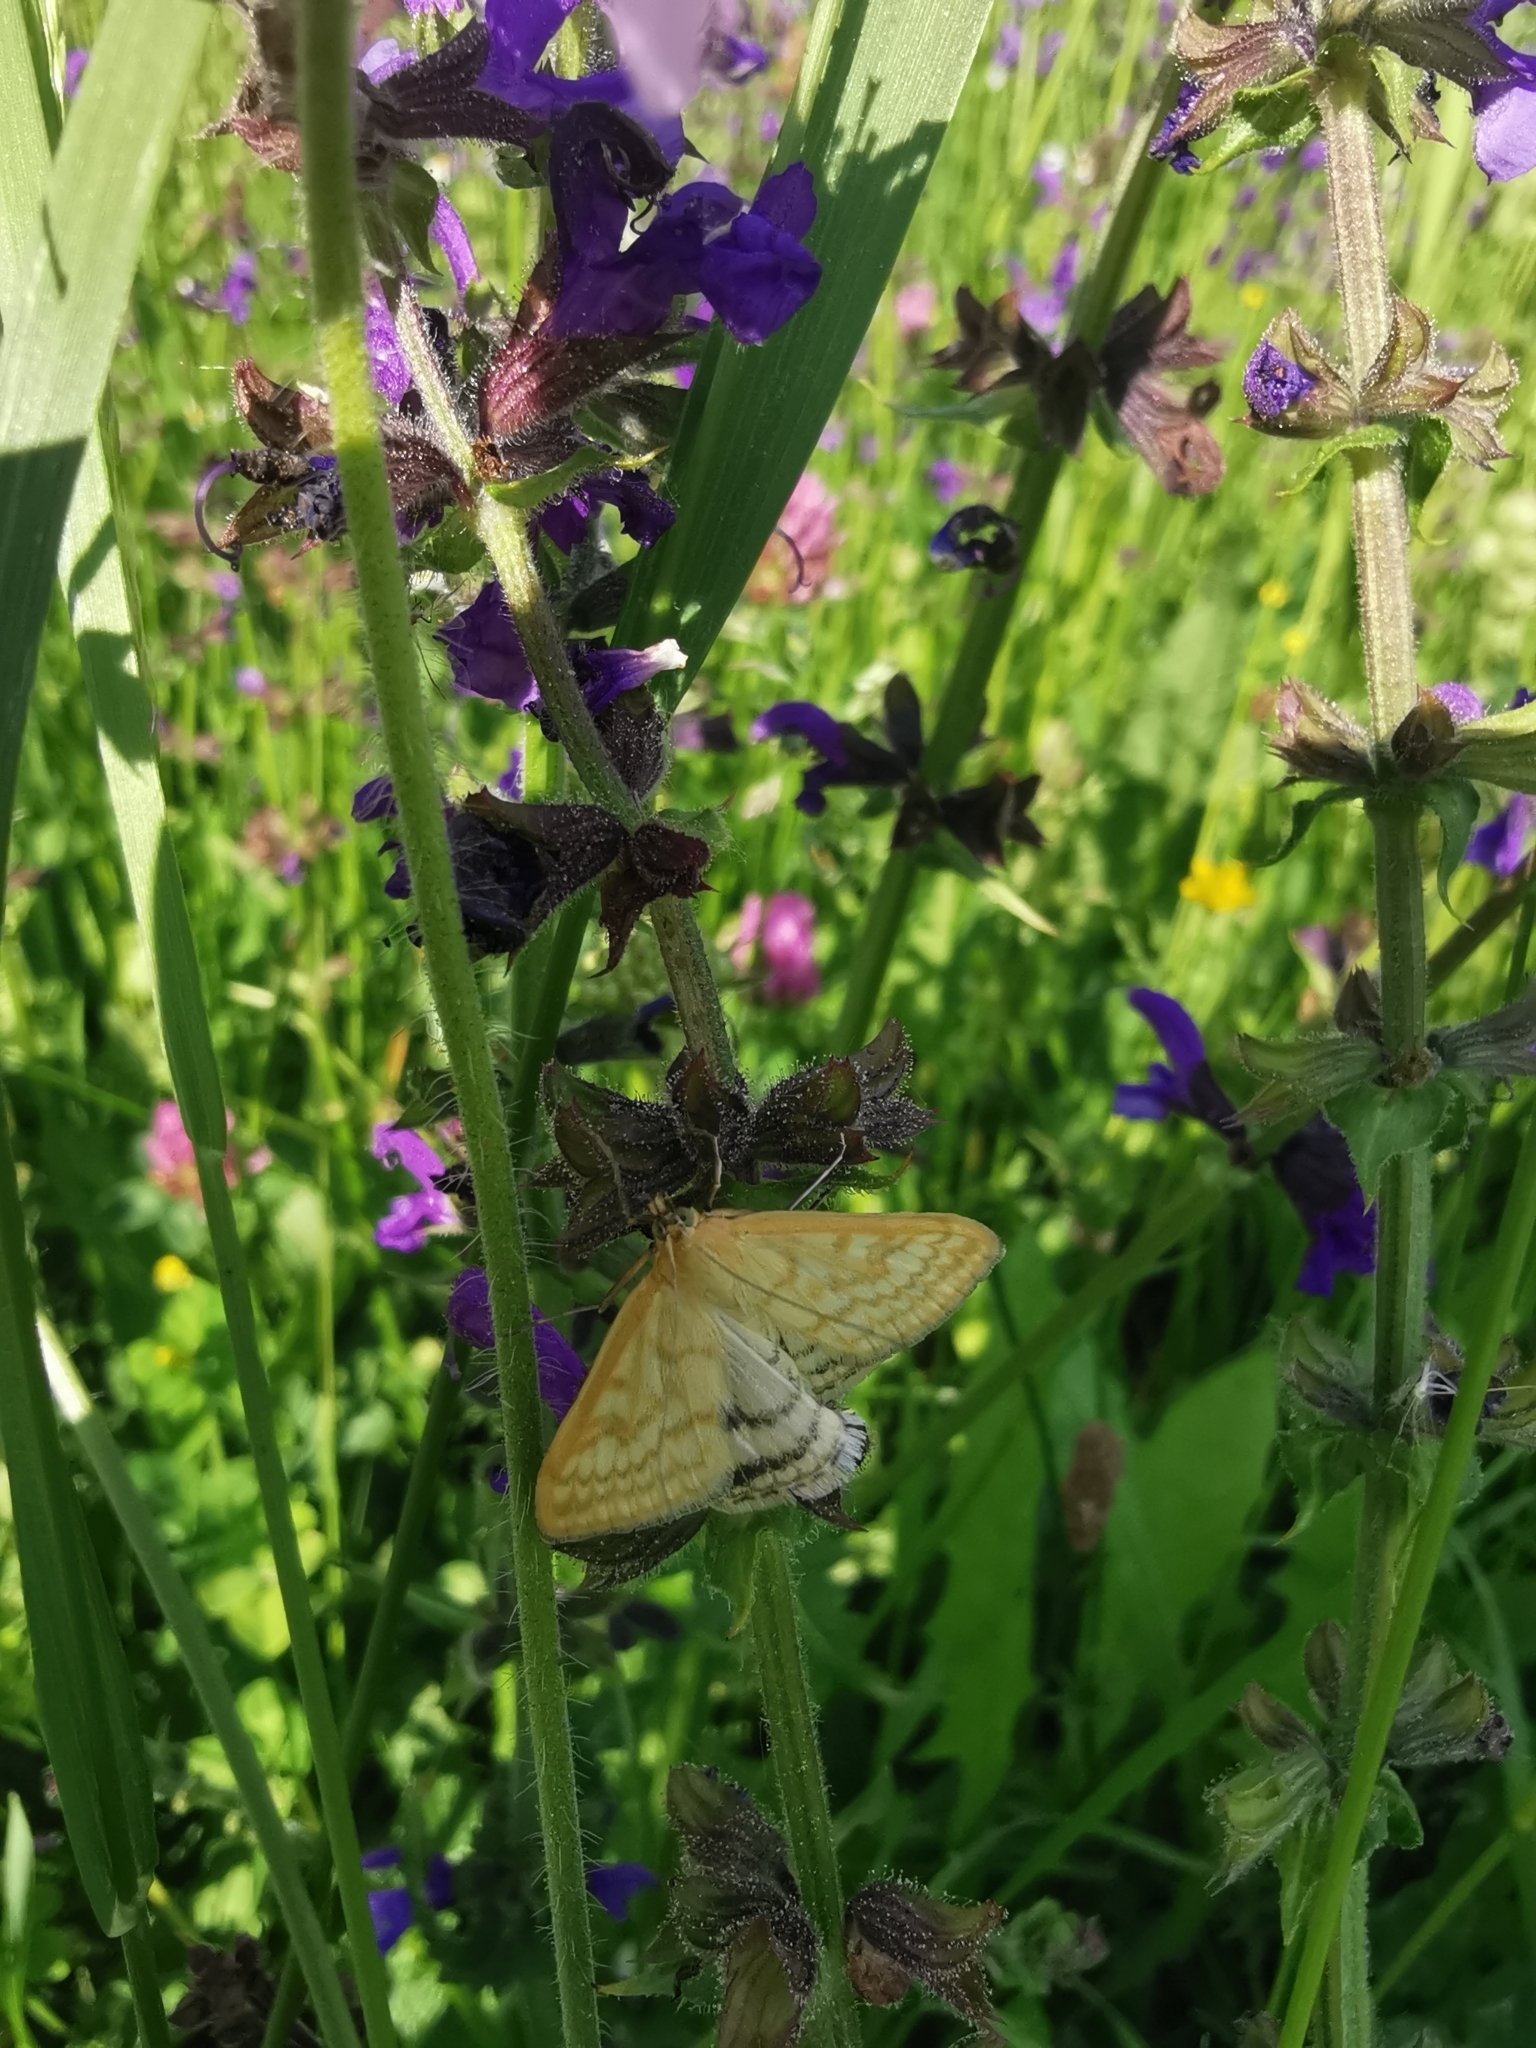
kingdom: Animalia
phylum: Arthropoda
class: Insecta
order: Lepidoptera
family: Crambidae
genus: Sitochroa
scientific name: Sitochroa verticalis
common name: Lesser pearl
